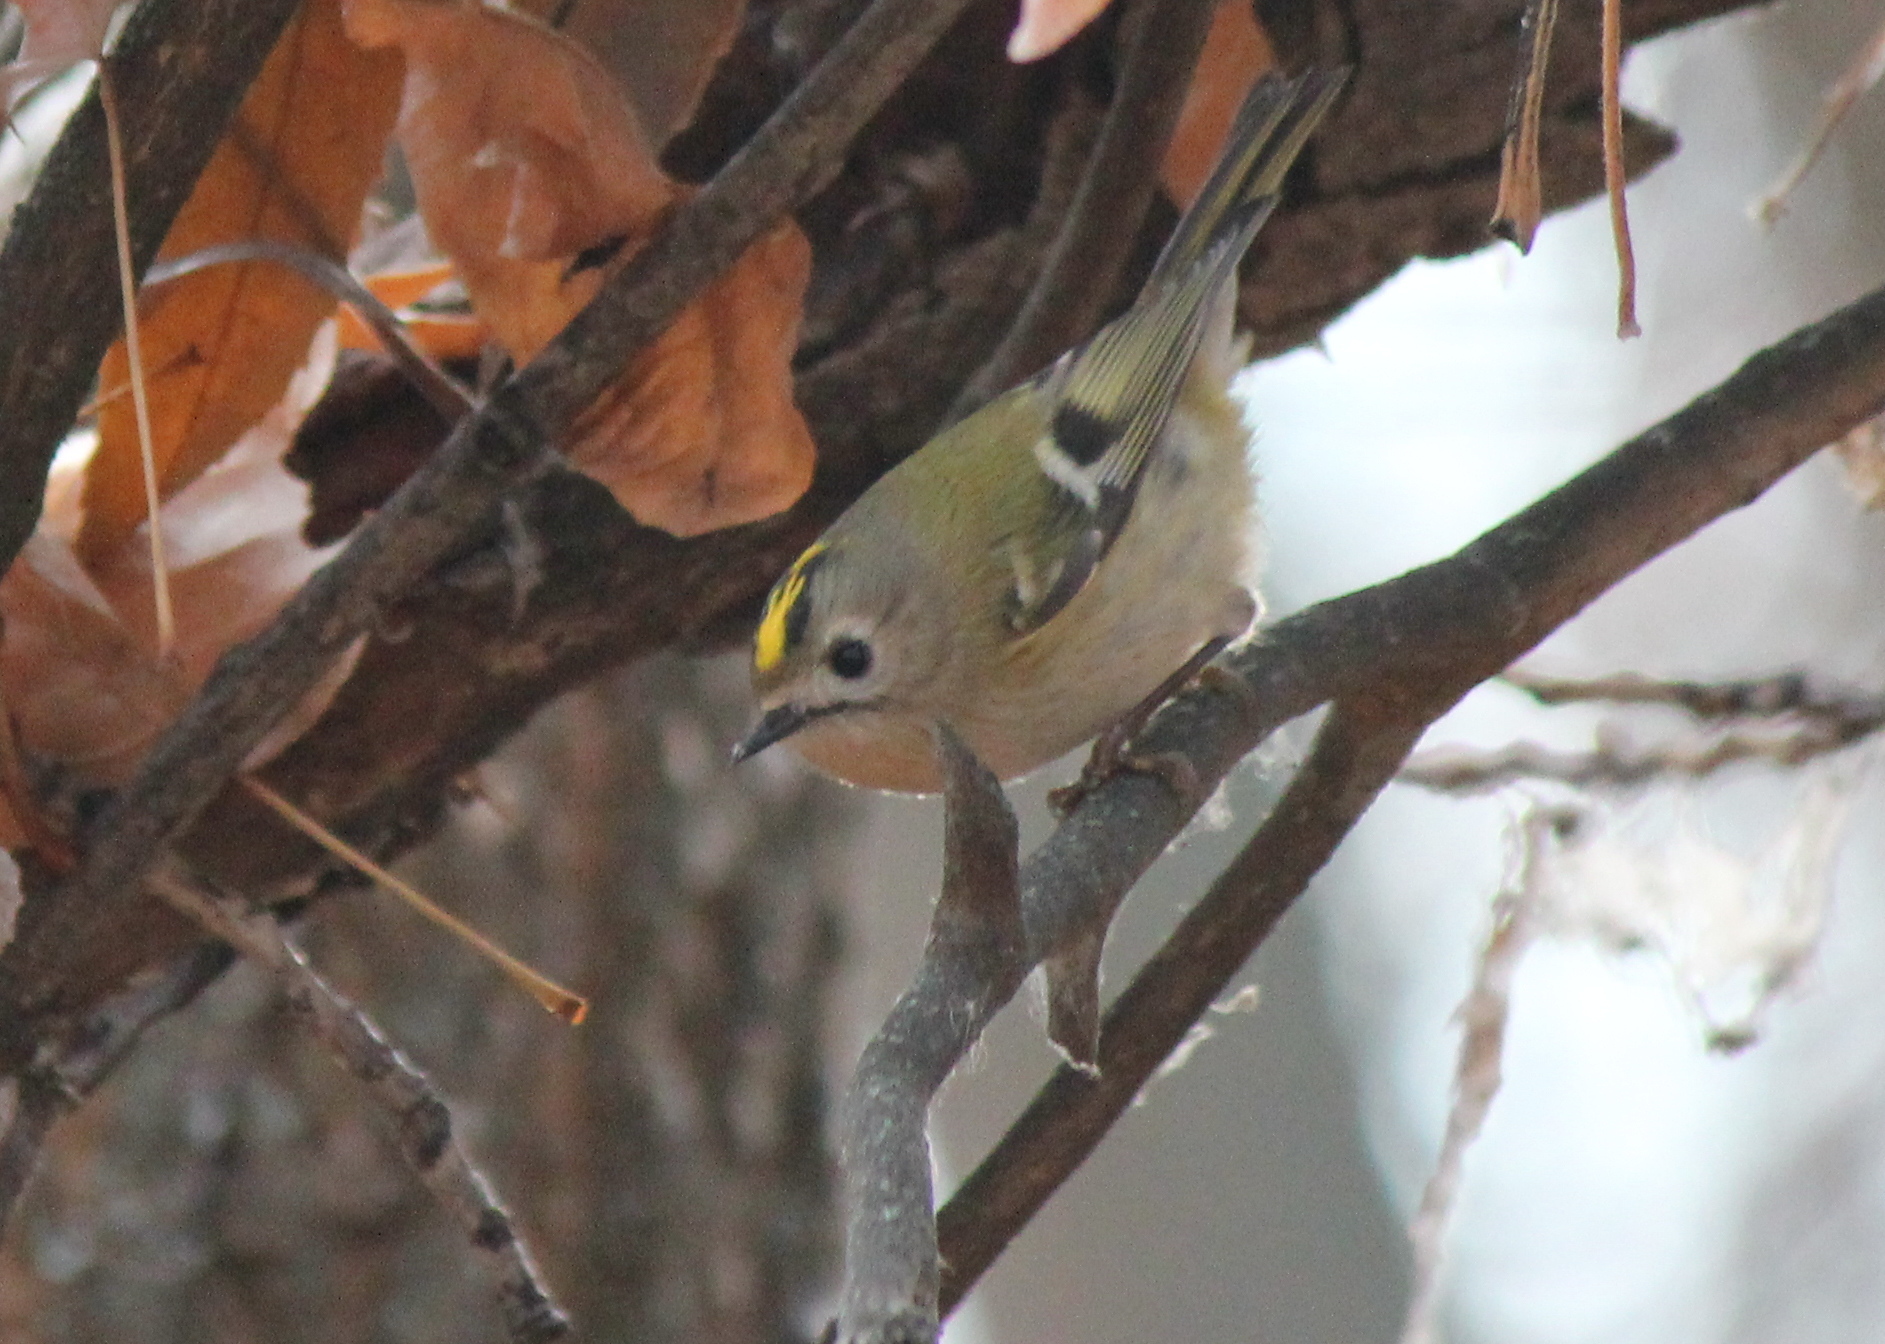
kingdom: Animalia
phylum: Chordata
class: Aves
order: Passeriformes
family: Regulidae
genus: Regulus
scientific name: Regulus regulus
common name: Goldcrest
